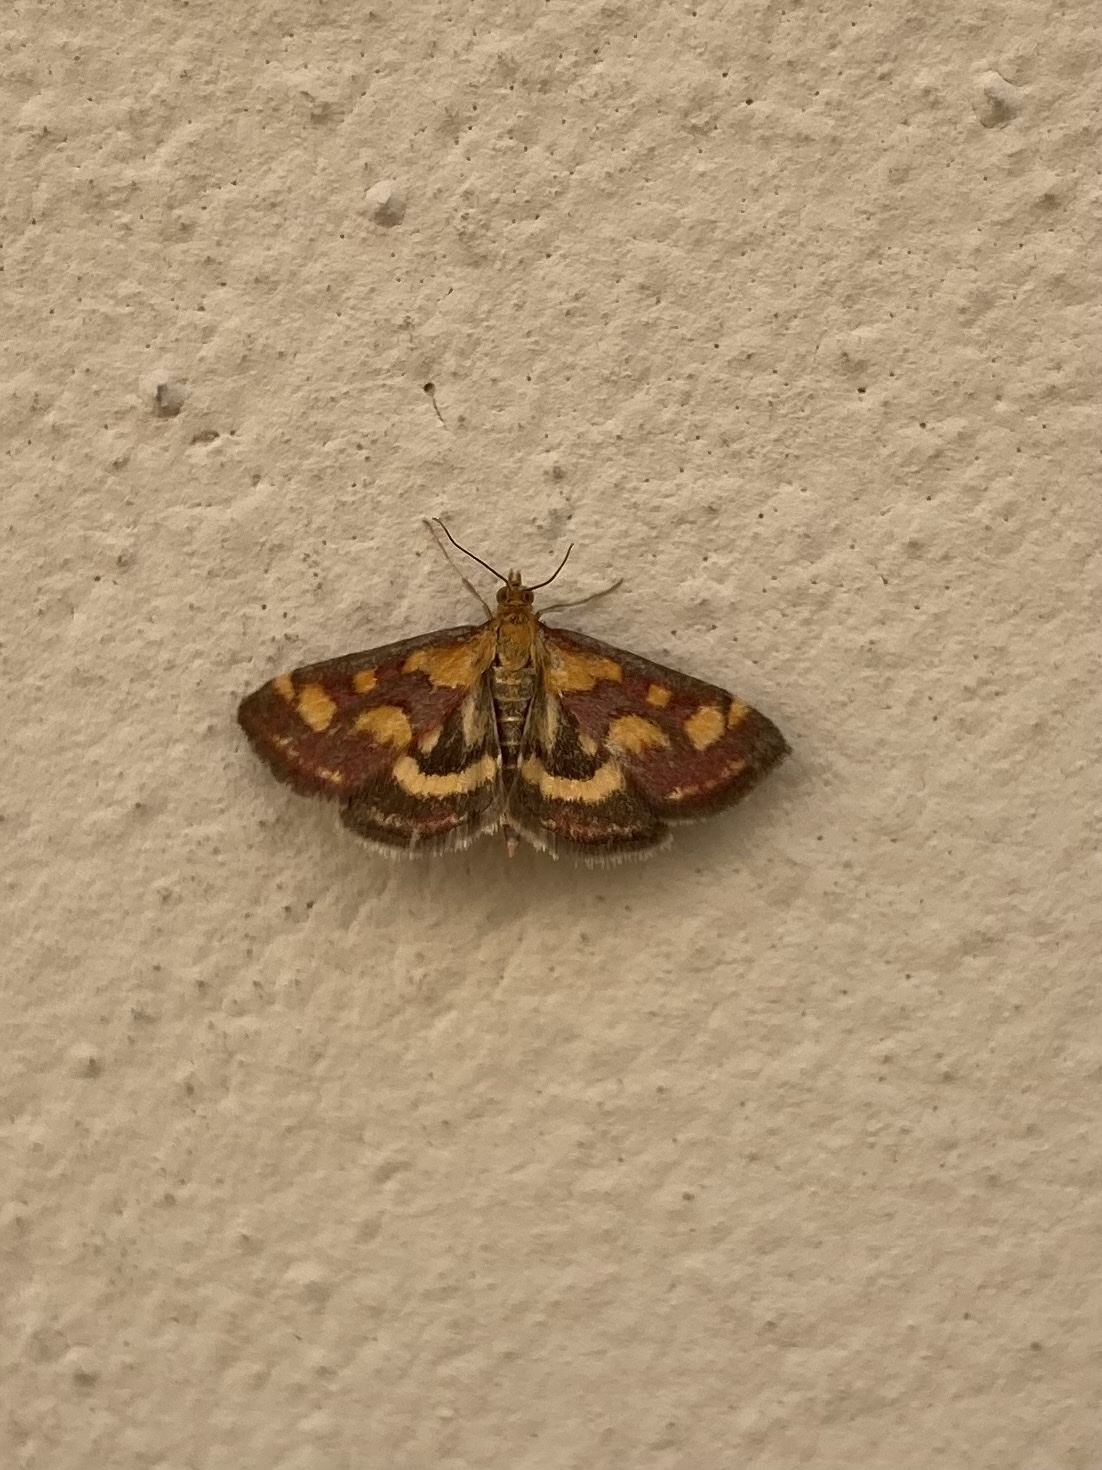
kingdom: Animalia
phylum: Arthropoda
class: Insecta
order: Lepidoptera
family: Crambidae
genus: Pyrausta
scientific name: Pyrausta purpuralis
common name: Common purple & gold
